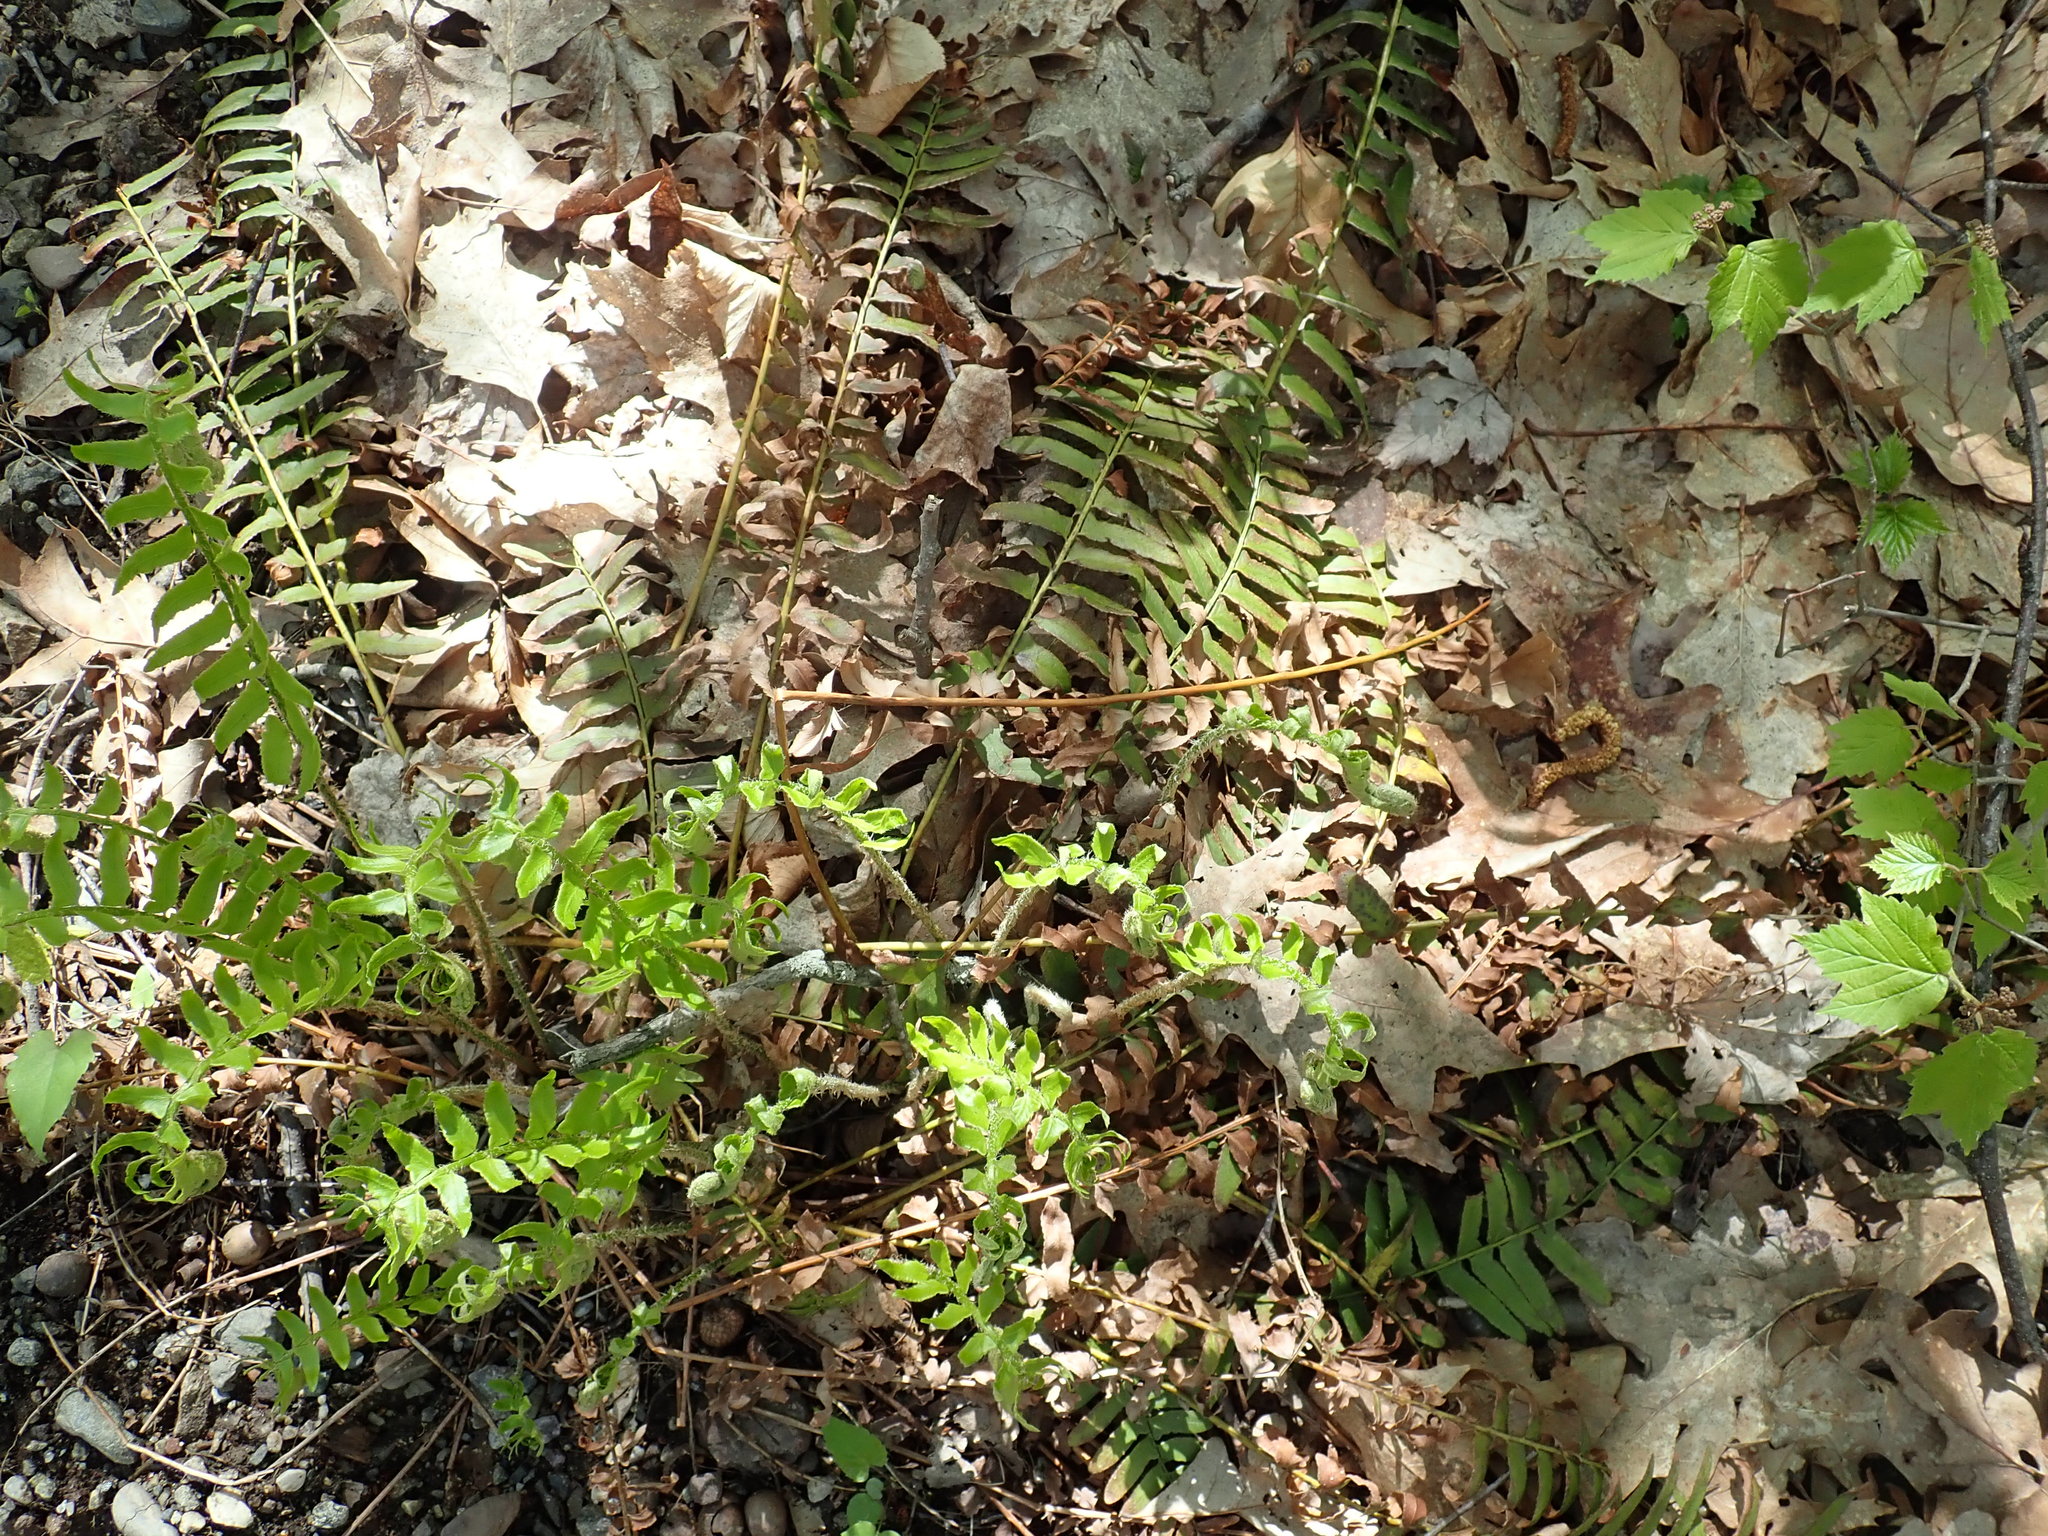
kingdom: Plantae
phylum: Tracheophyta
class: Polypodiopsida
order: Polypodiales
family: Dryopteridaceae
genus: Polystichum
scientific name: Polystichum acrostichoides
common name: Christmas fern
